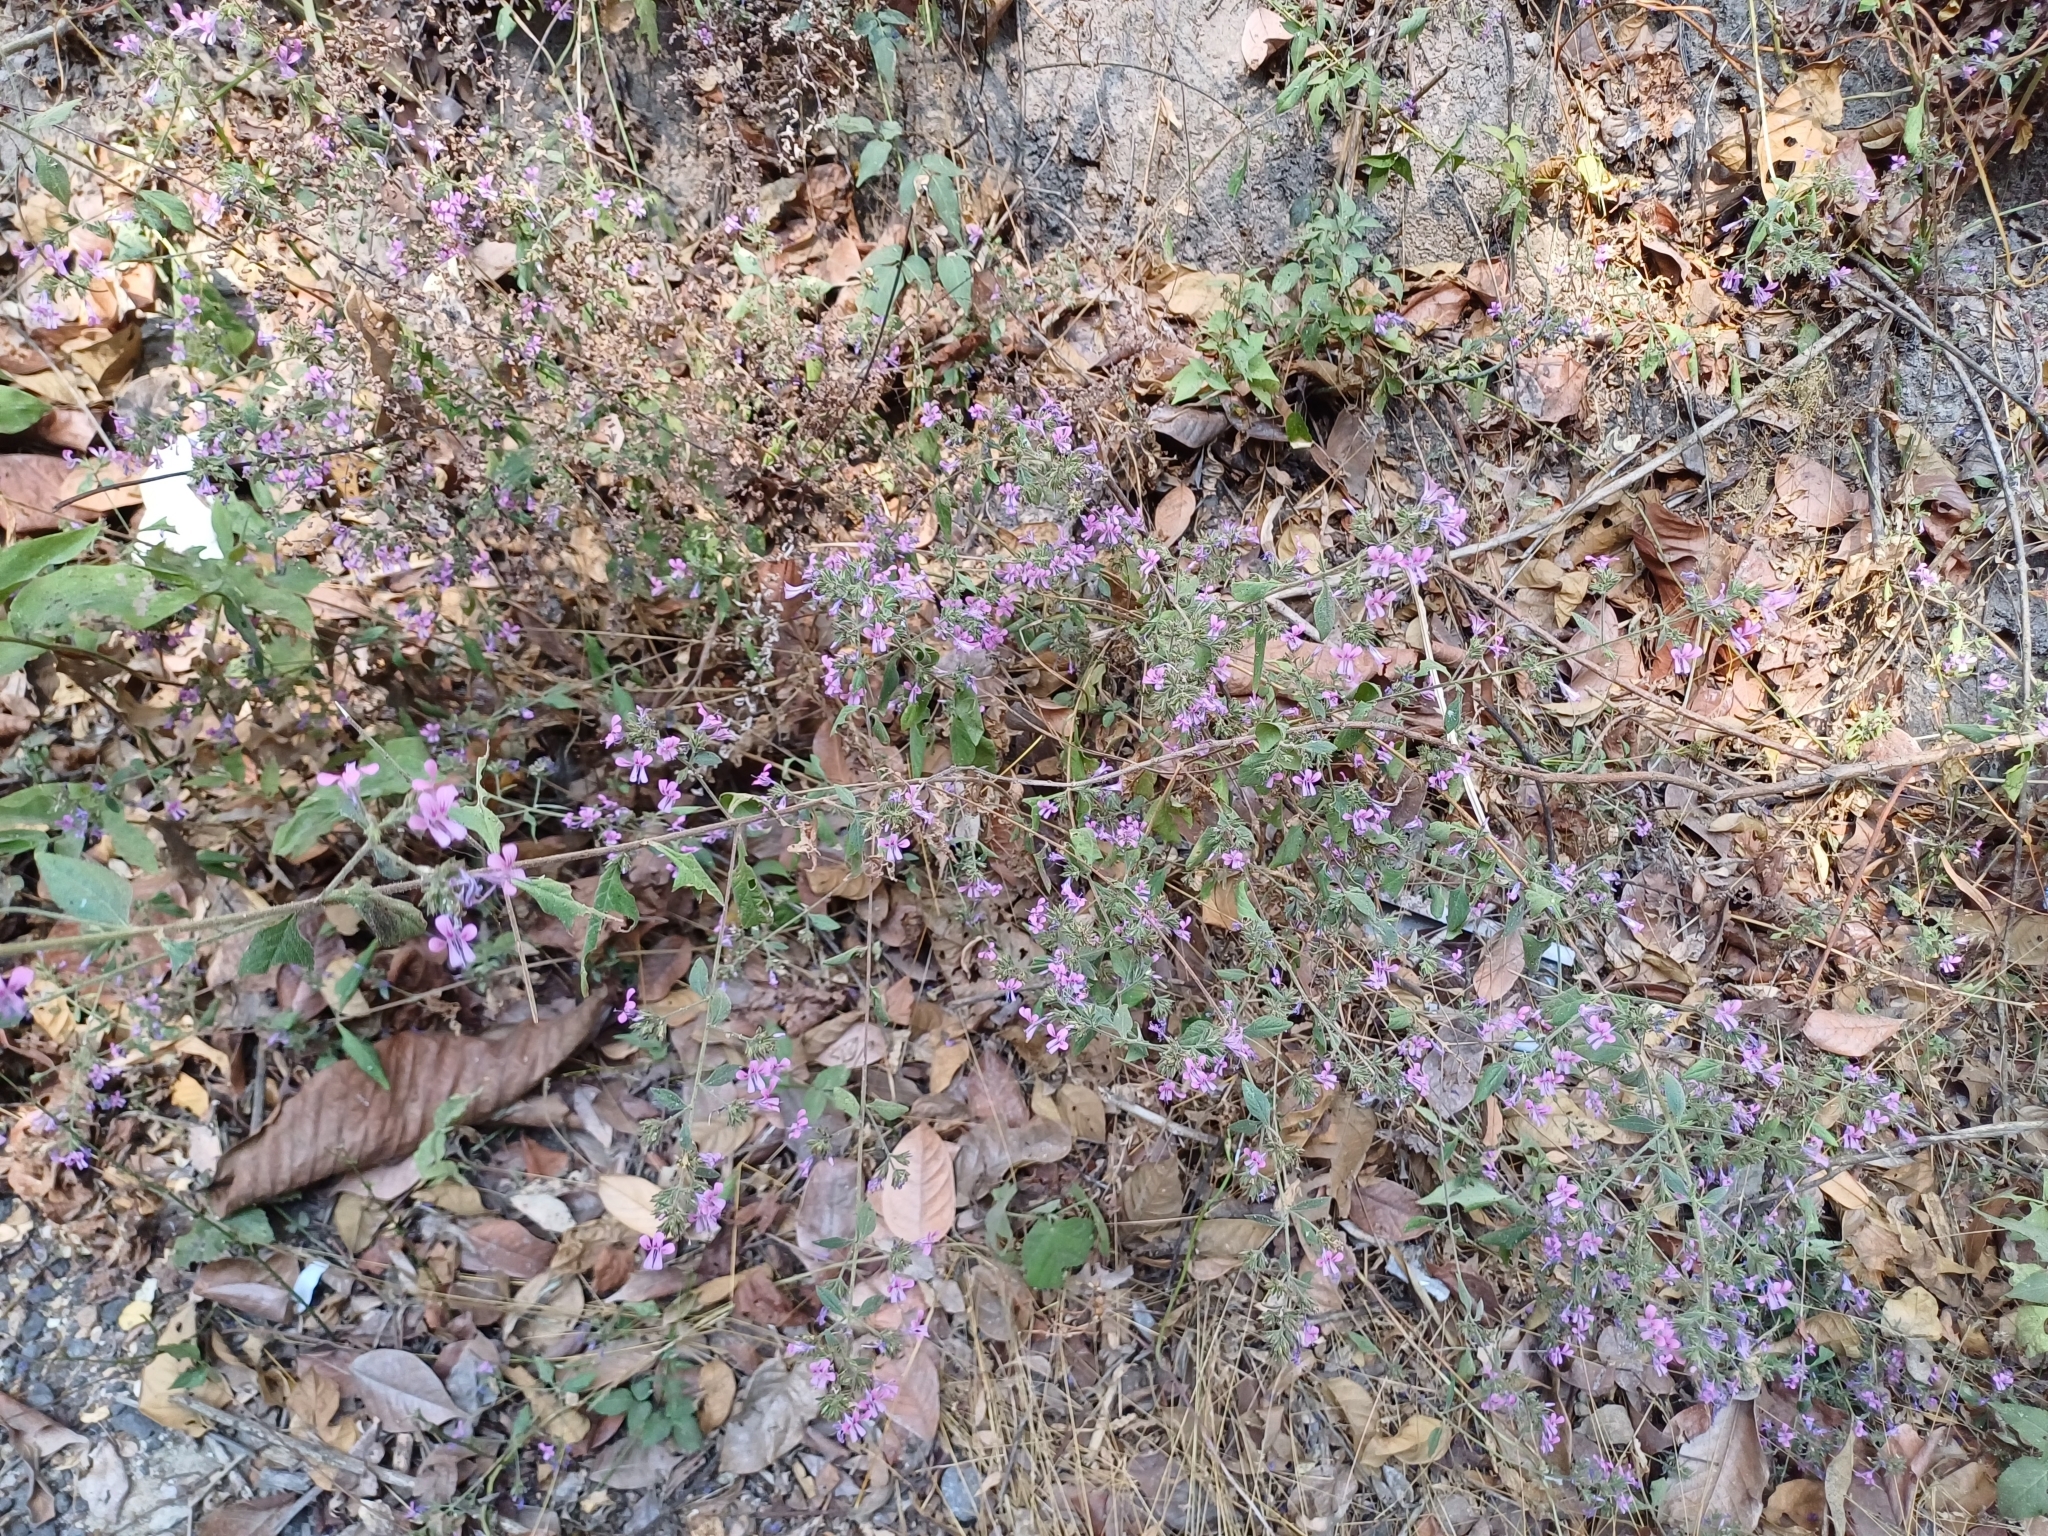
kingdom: Plantae
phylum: Tracheophyta
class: Magnoliopsida
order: Ericales
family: Polemoniaceae
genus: Loeselia
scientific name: Loeselia glandulosa
